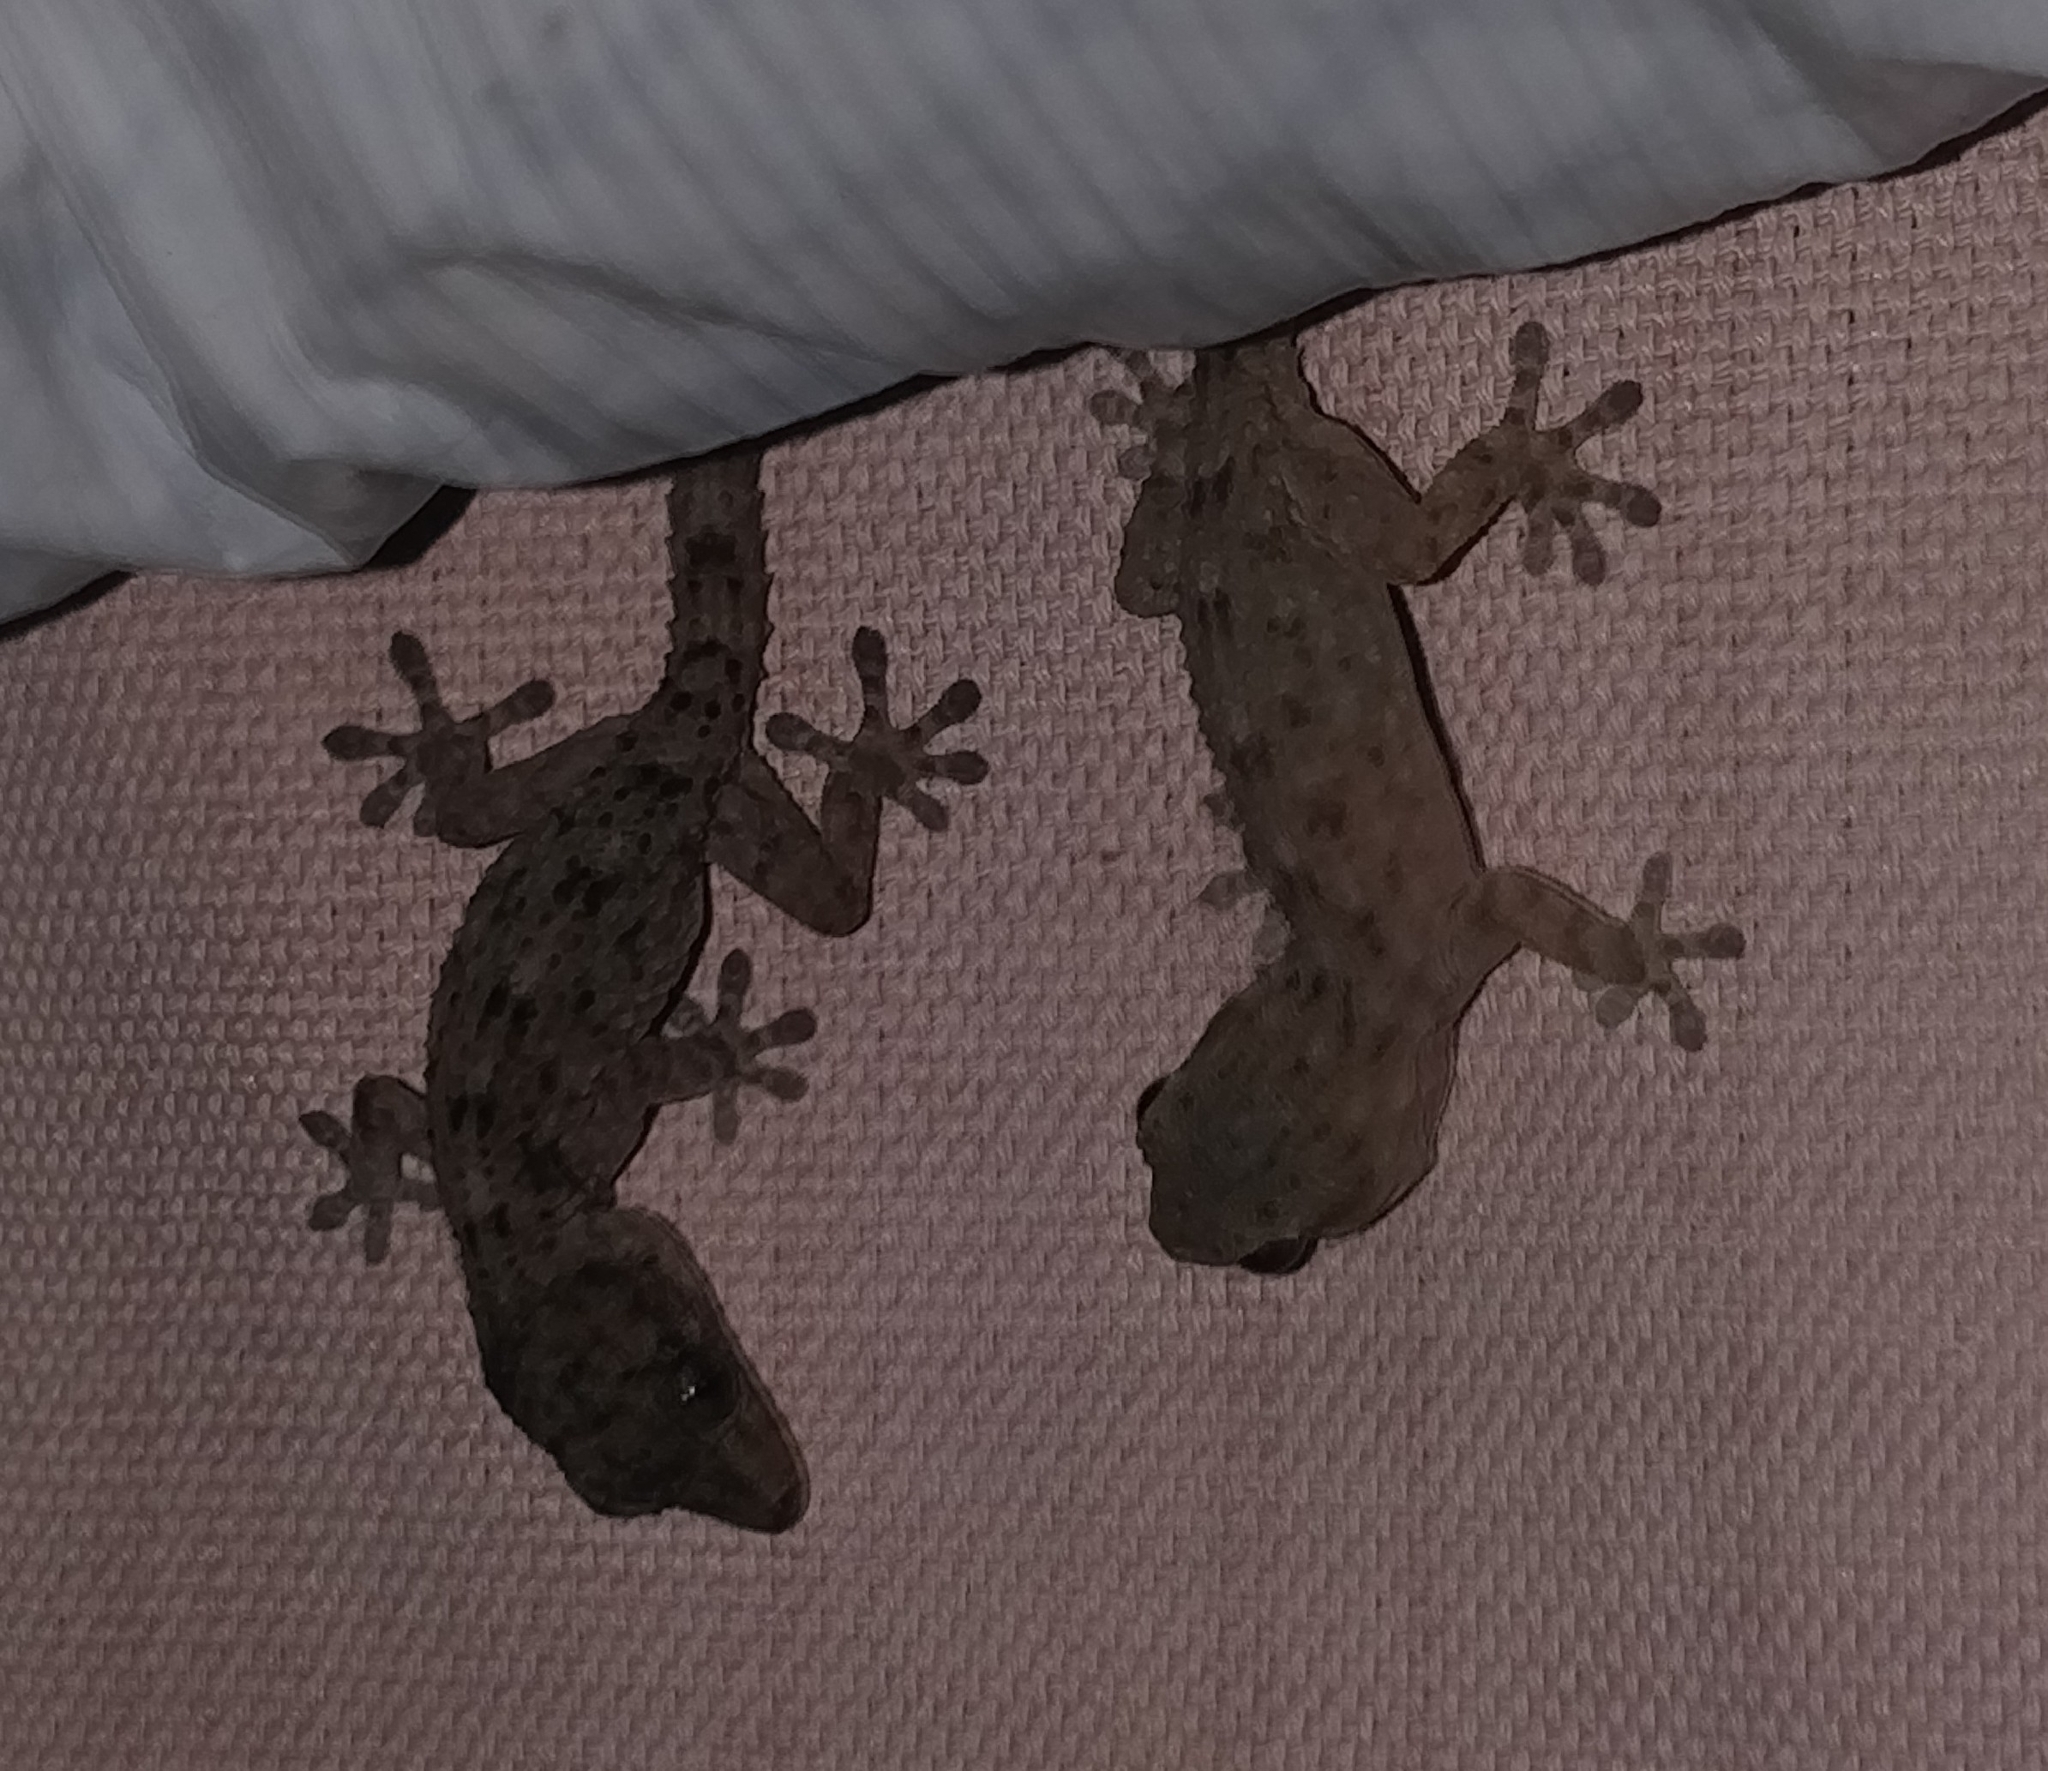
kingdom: Animalia
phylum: Chordata
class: Squamata
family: Phyllodactylidae
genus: Tarentola
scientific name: Tarentola delalandii
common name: Tenerife wall gecko
